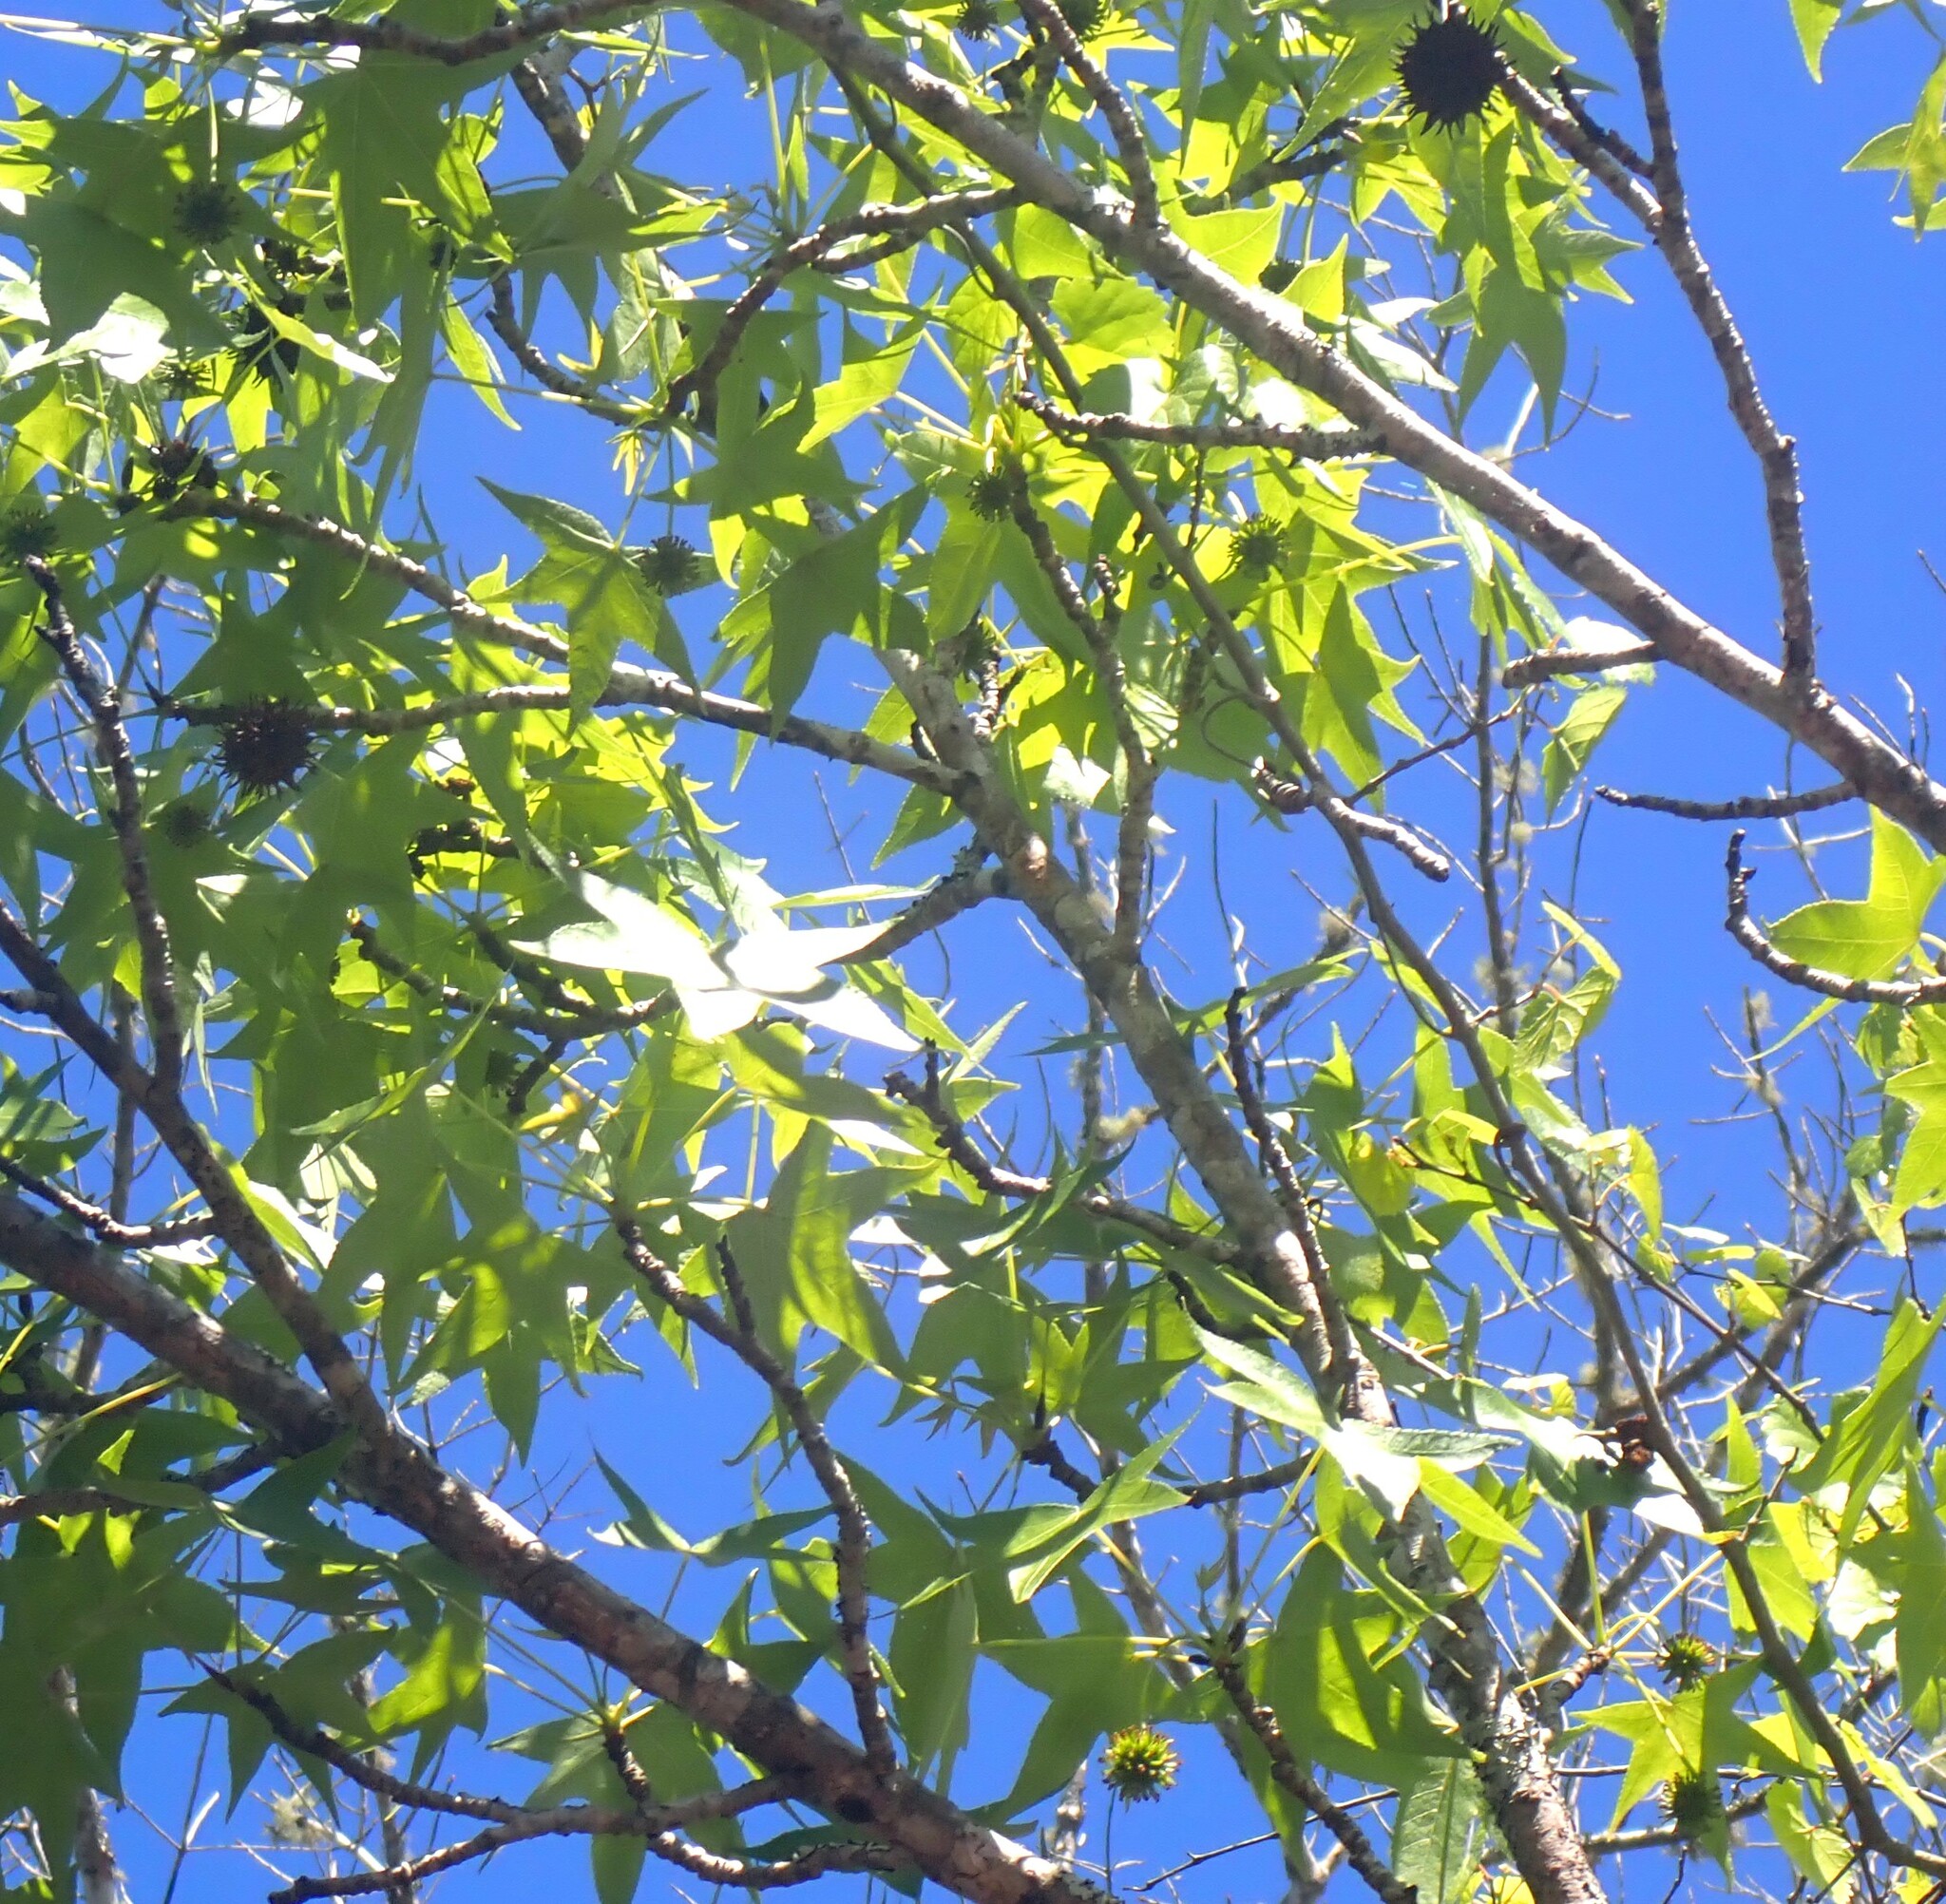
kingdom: Plantae
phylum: Tracheophyta
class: Magnoliopsida
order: Saxifragales
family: Altingiaceae
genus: Liquidambar
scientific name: Liquidambar styraciflua
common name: Sweet gum
